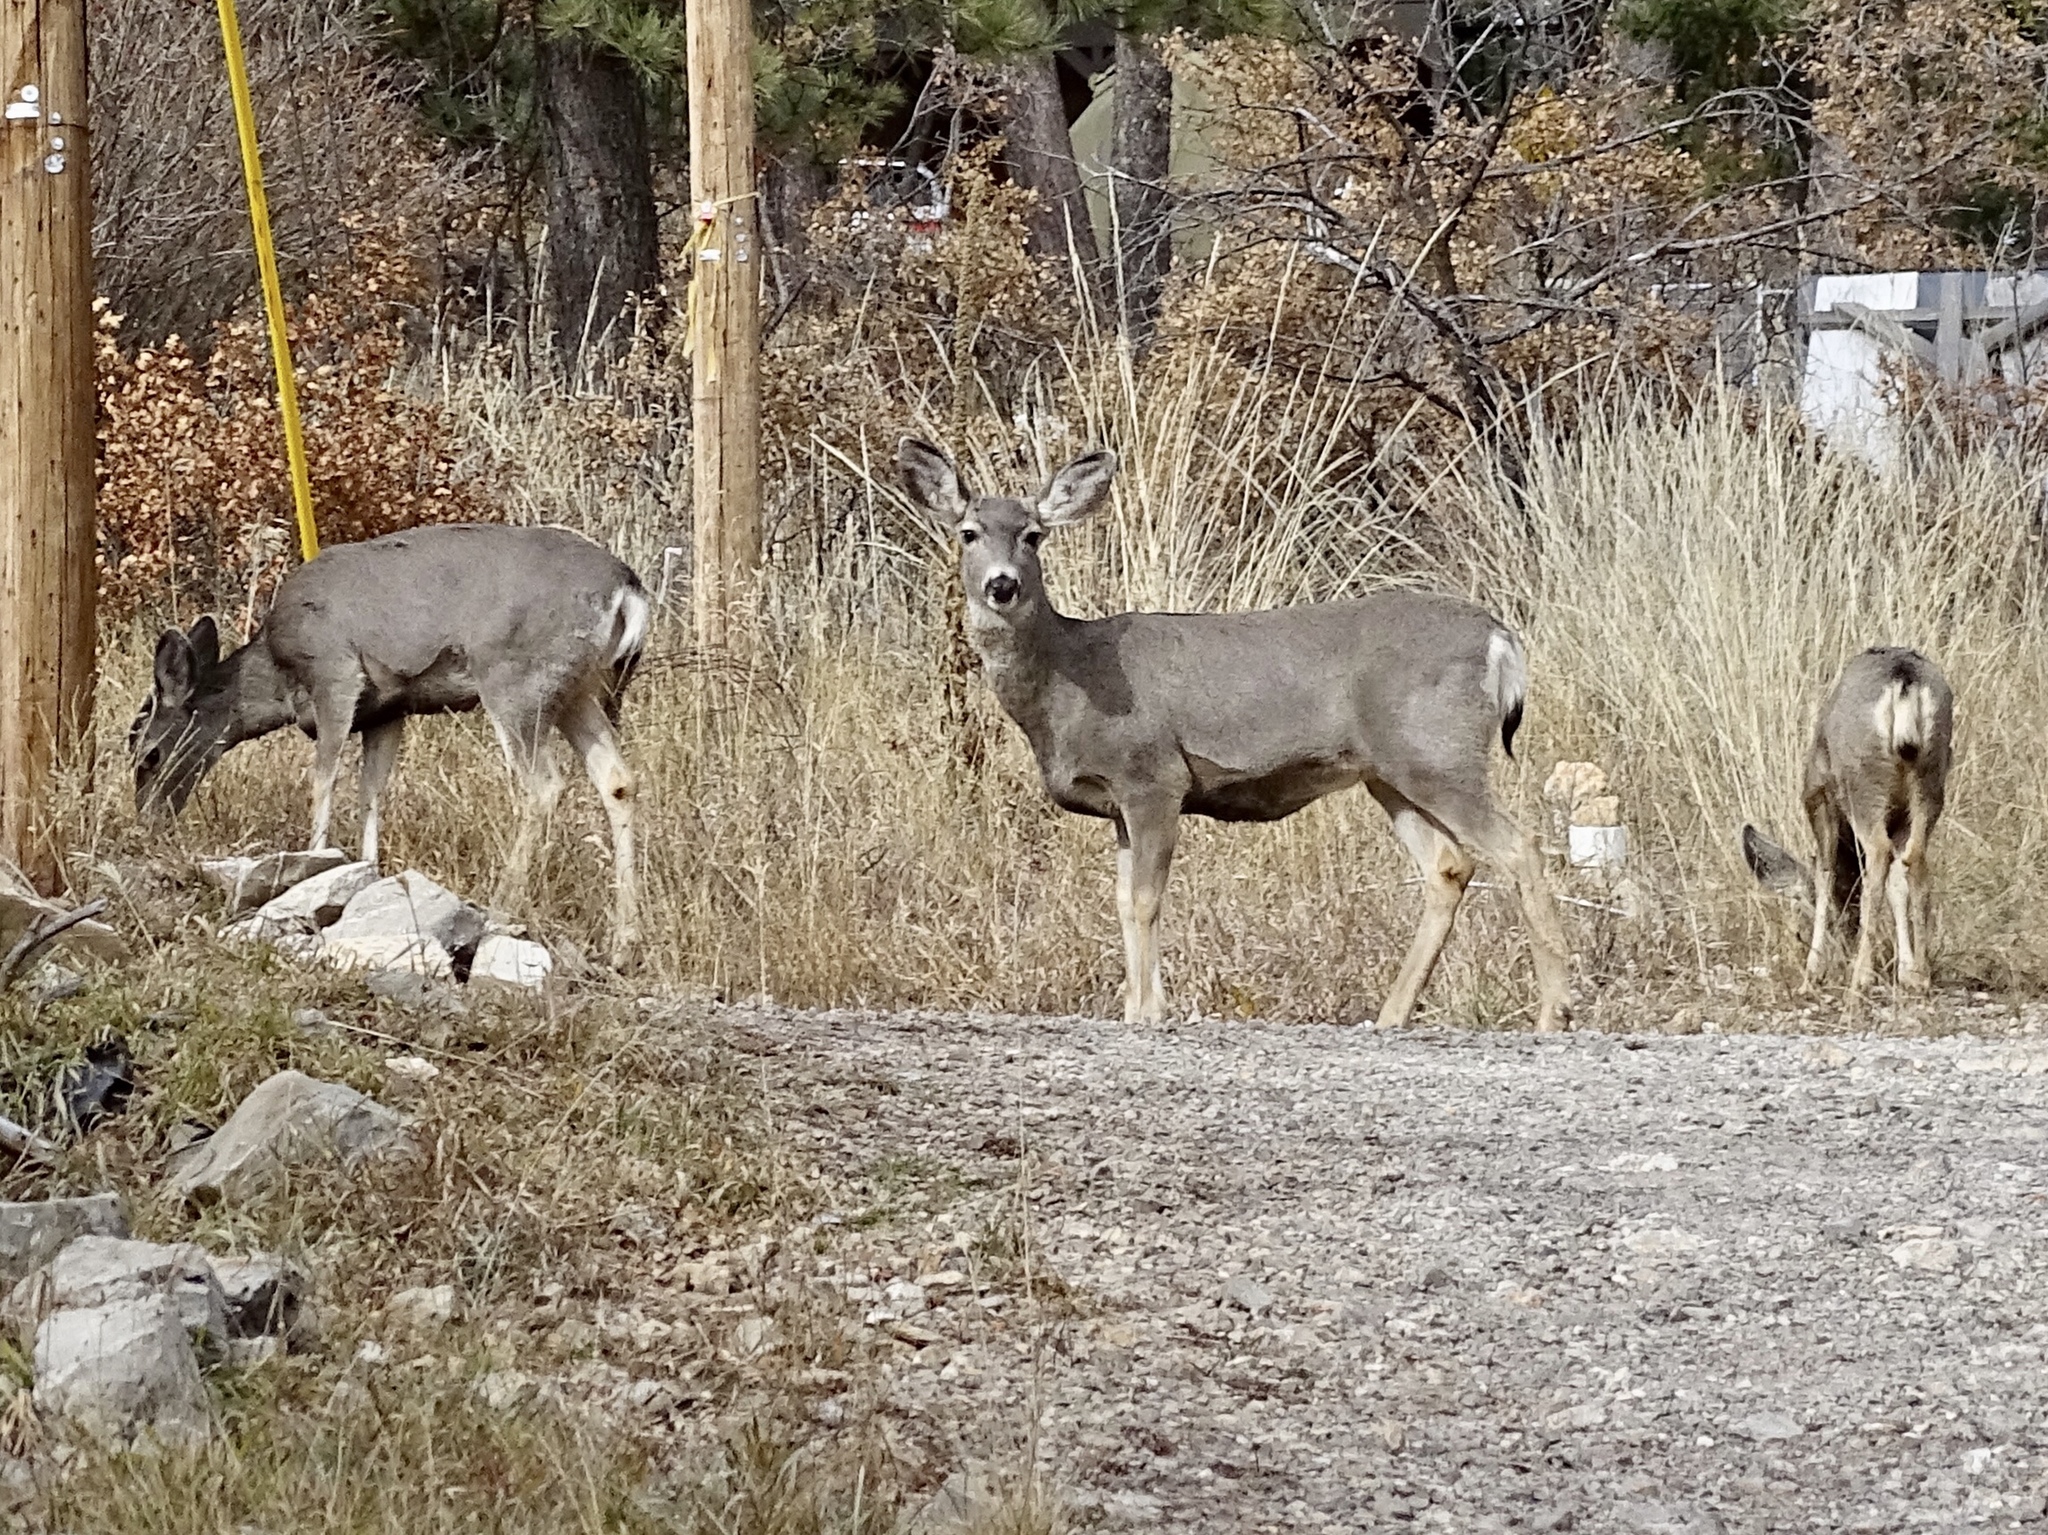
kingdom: Animalia
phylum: Chordata
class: Mammalia
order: Artiodactyla
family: Cervidae
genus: Odocoileus
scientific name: Odocoileus hemionus
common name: Mule deer
